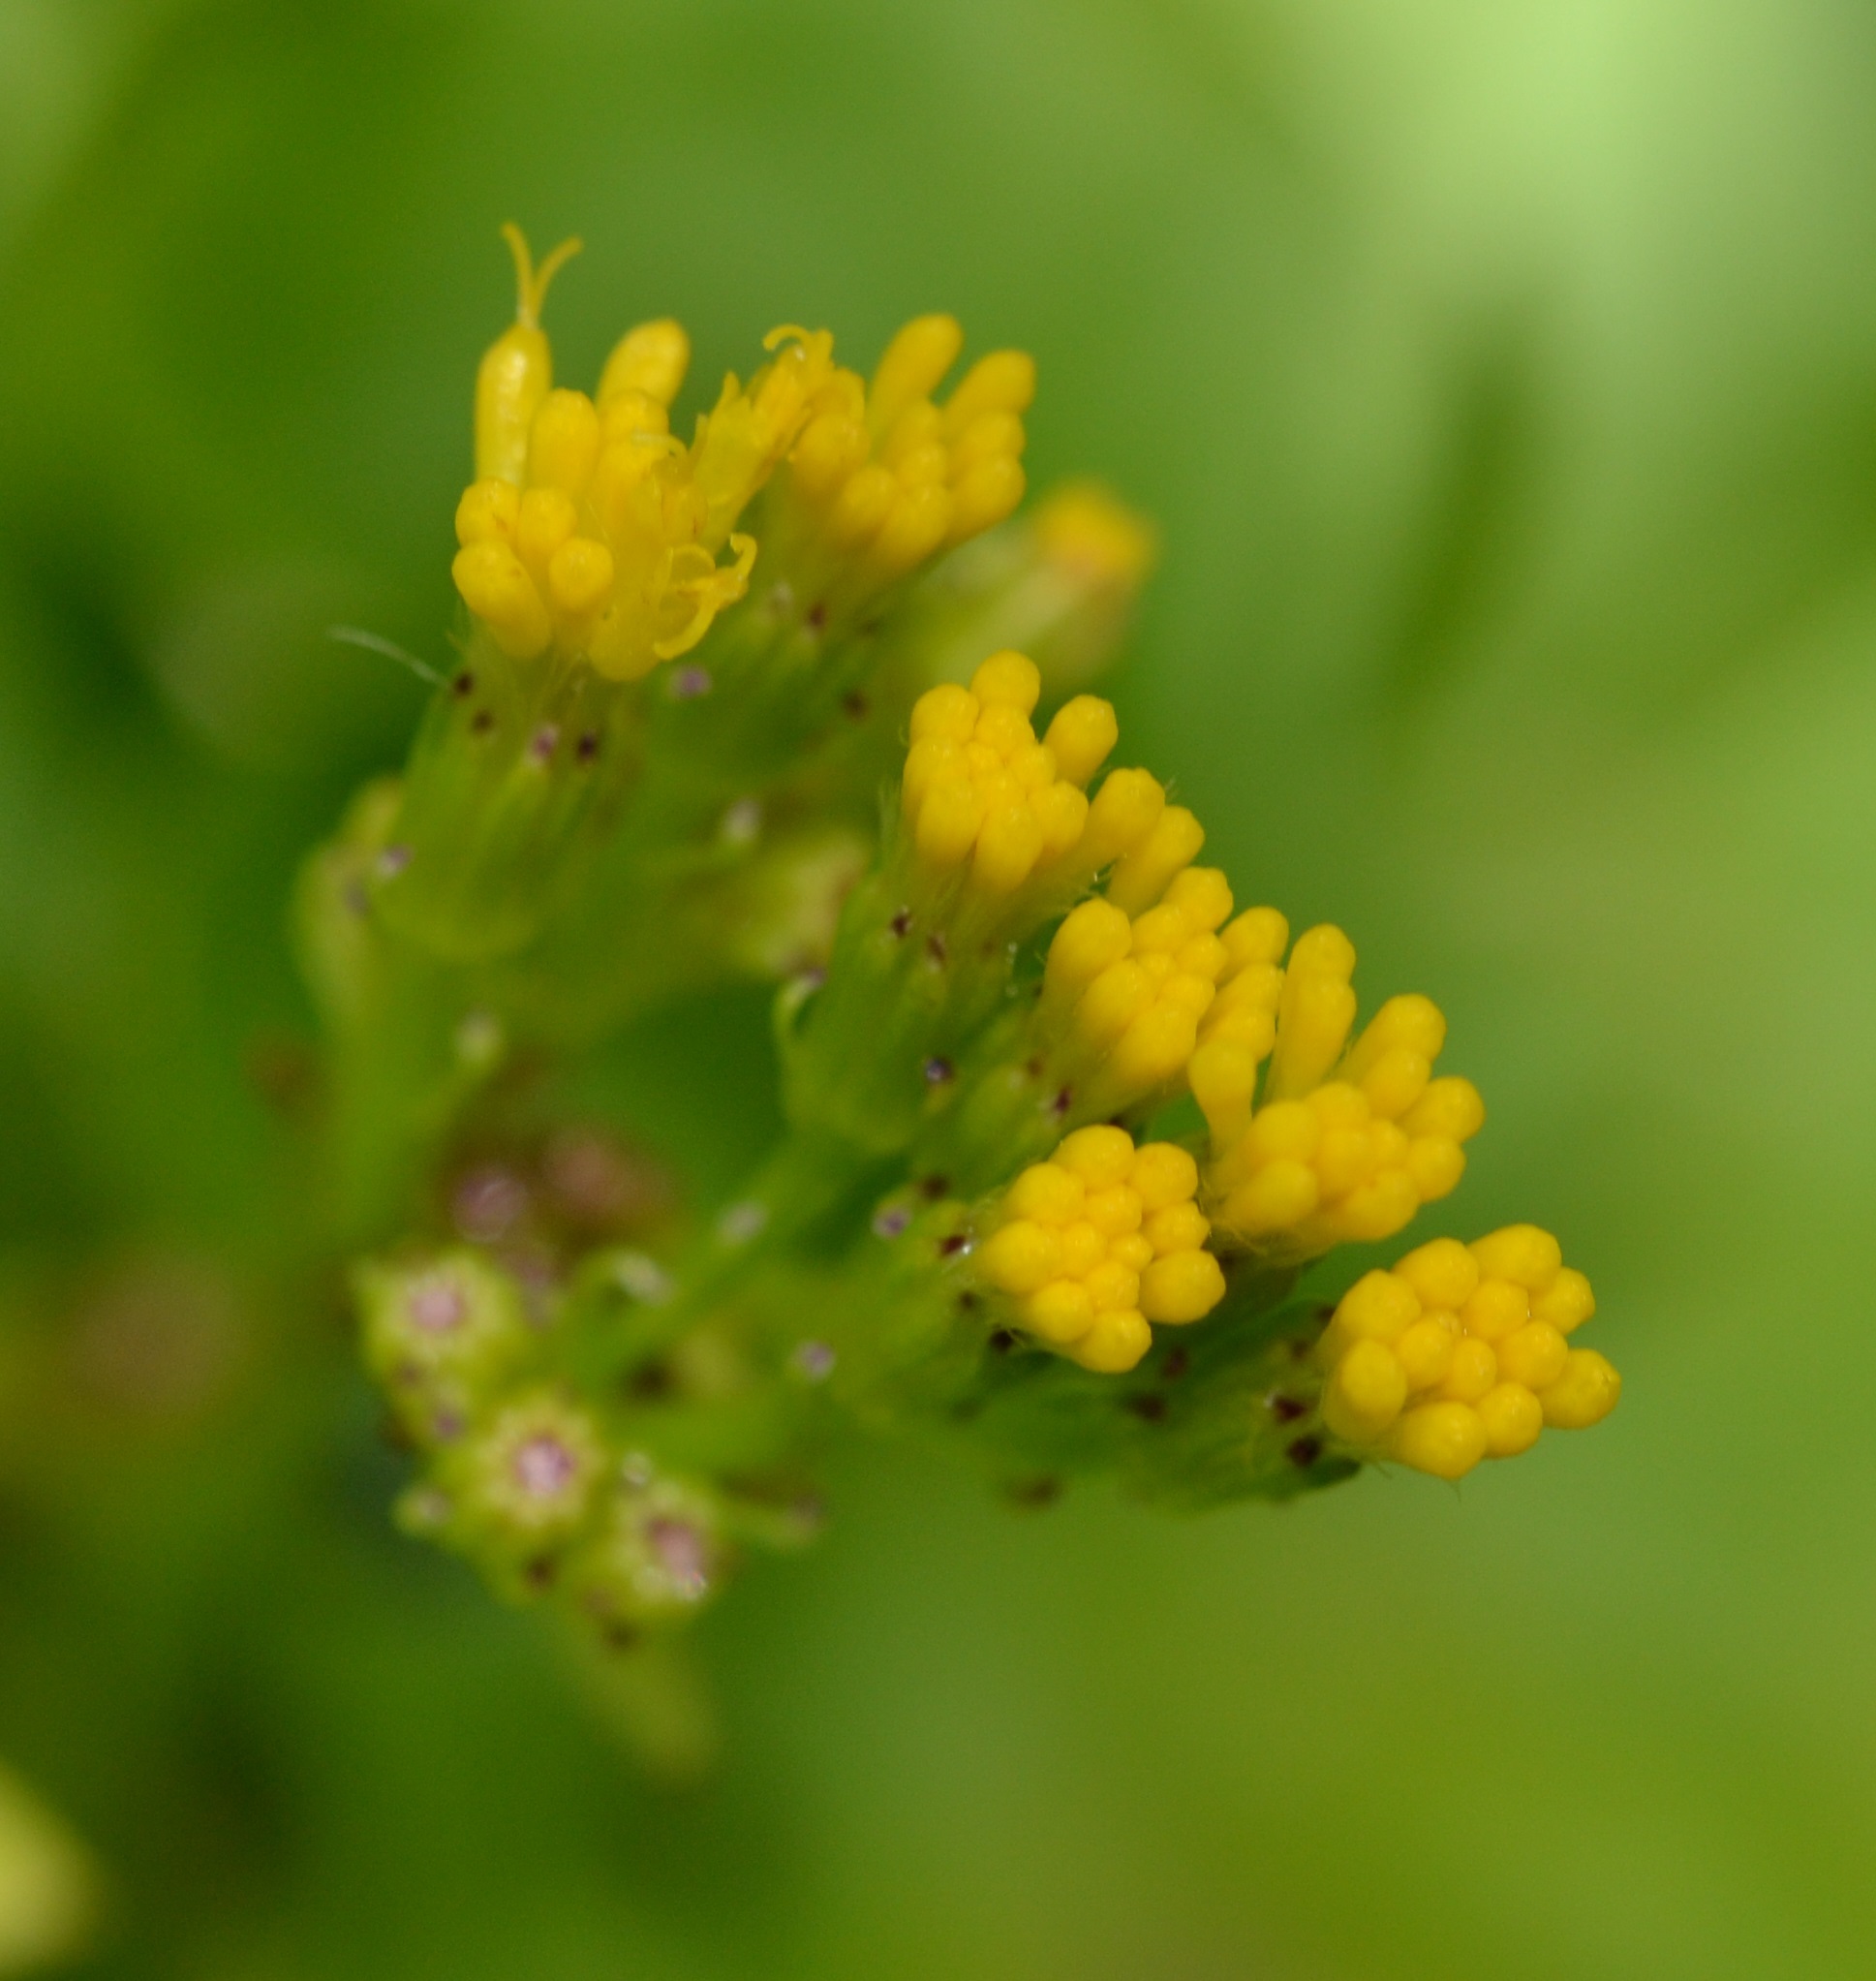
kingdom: Plantae
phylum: Tracheophyta
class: Magnoliopsida
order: Asterales
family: Asteraceae
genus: Delairea
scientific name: Delairea odorata
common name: Cape-ivy
